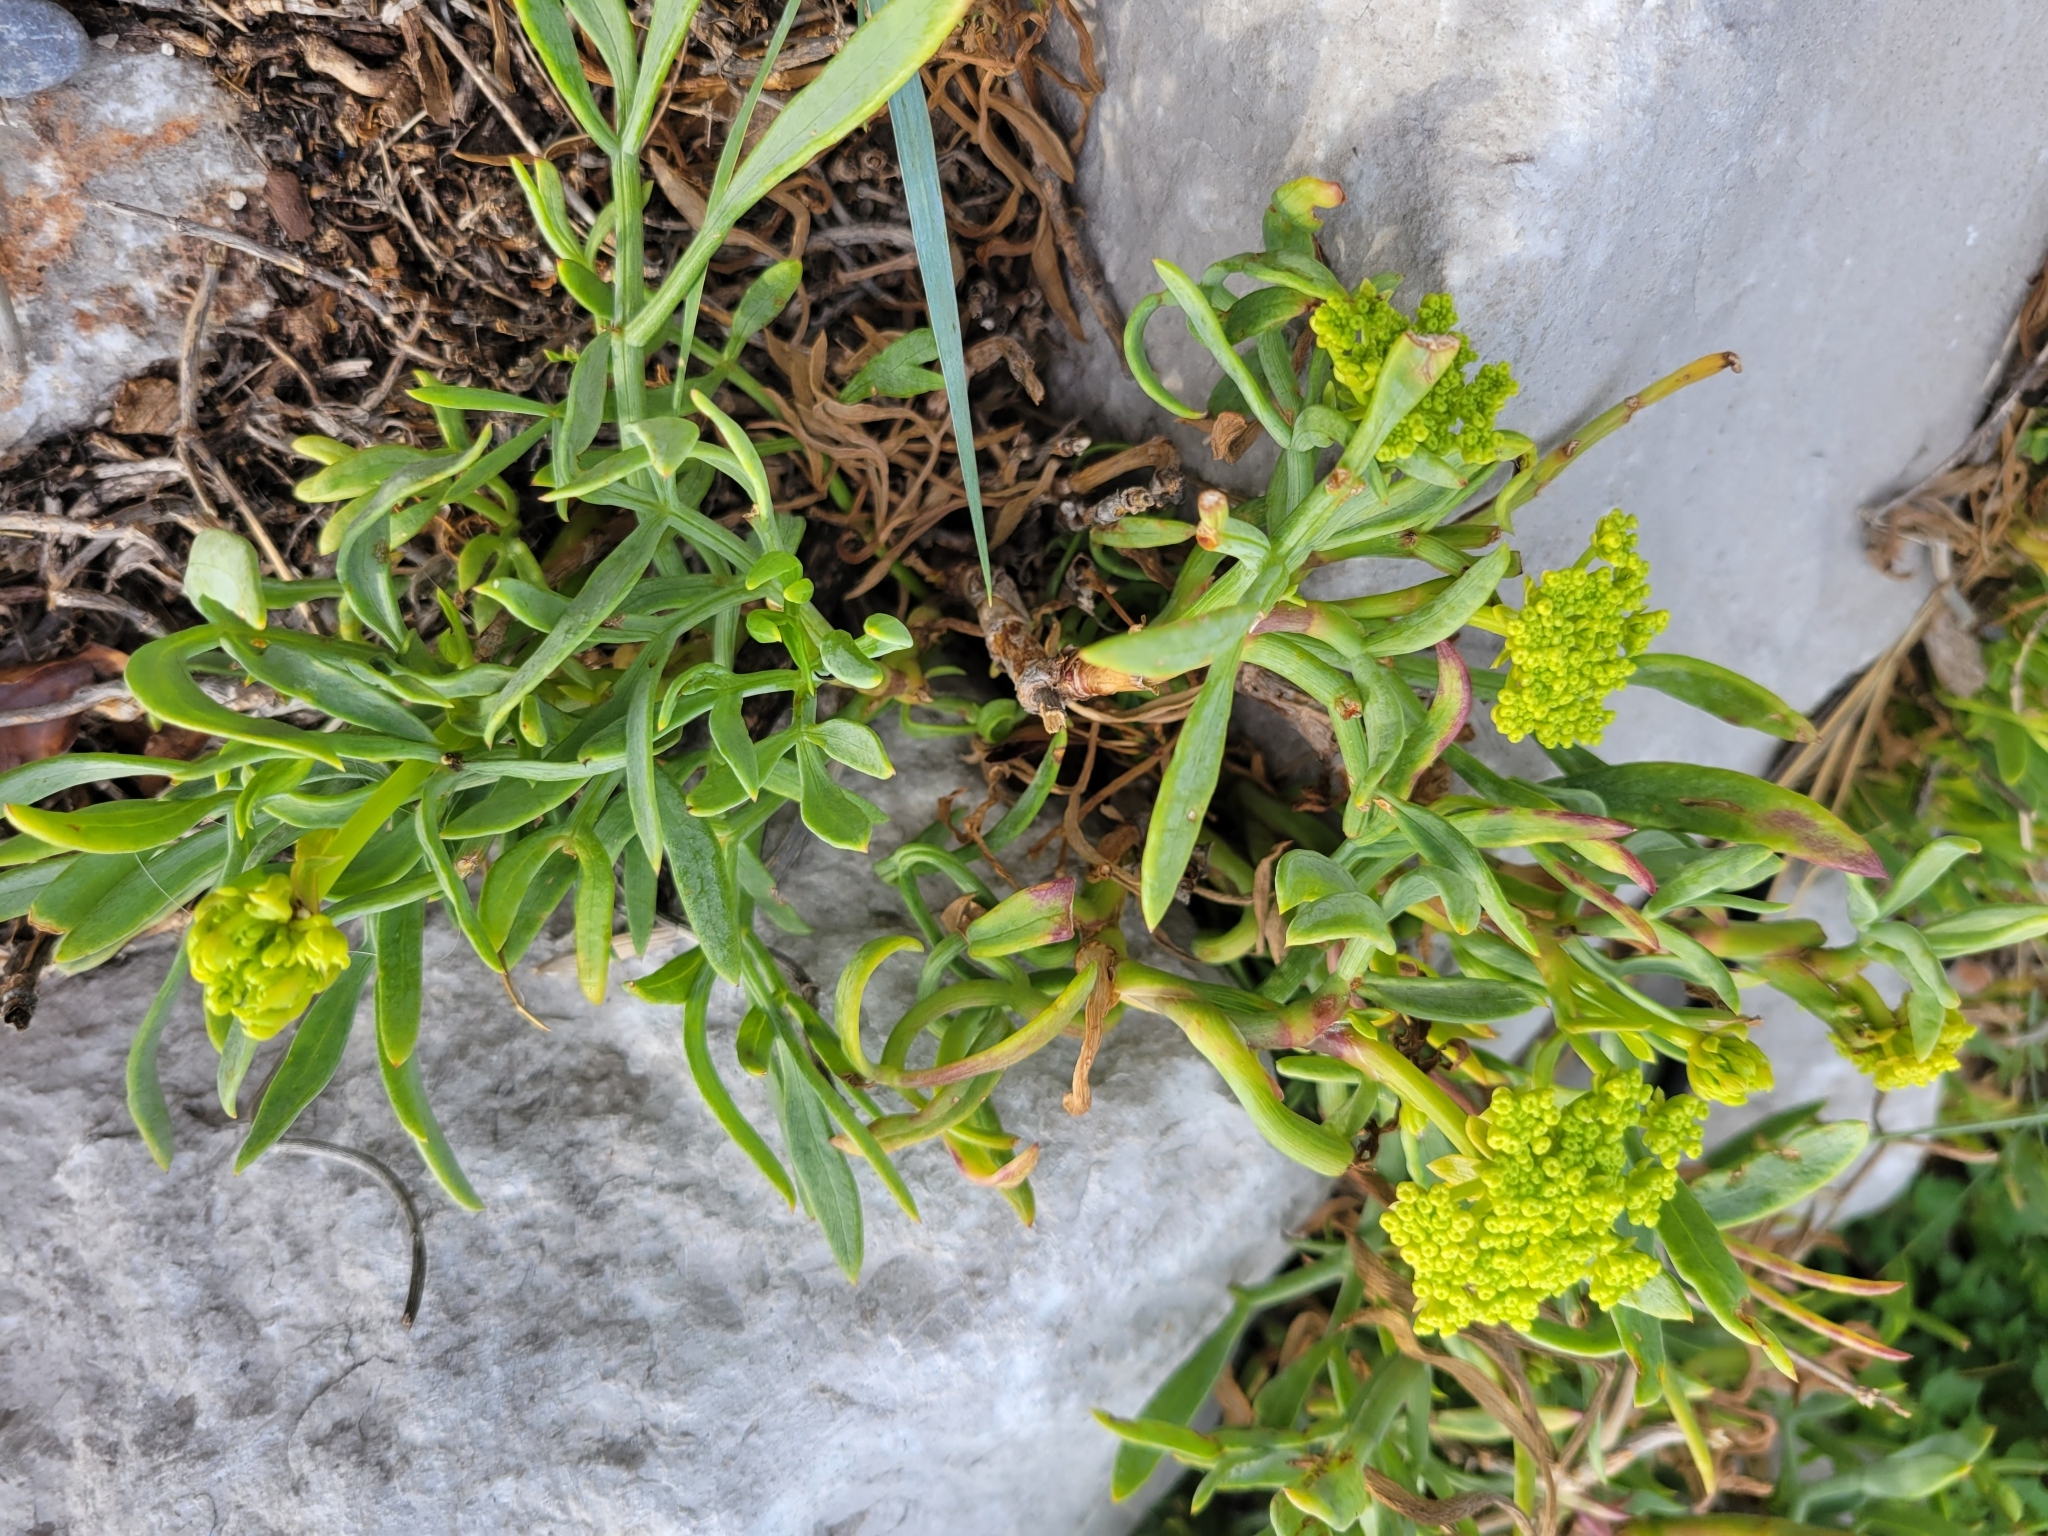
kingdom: Plantae
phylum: Tracheophyta
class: Magnoliopsida
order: Apiales
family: Apiaceae
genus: Crithmum
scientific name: Crithmum maritimum
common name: Rock samphire
